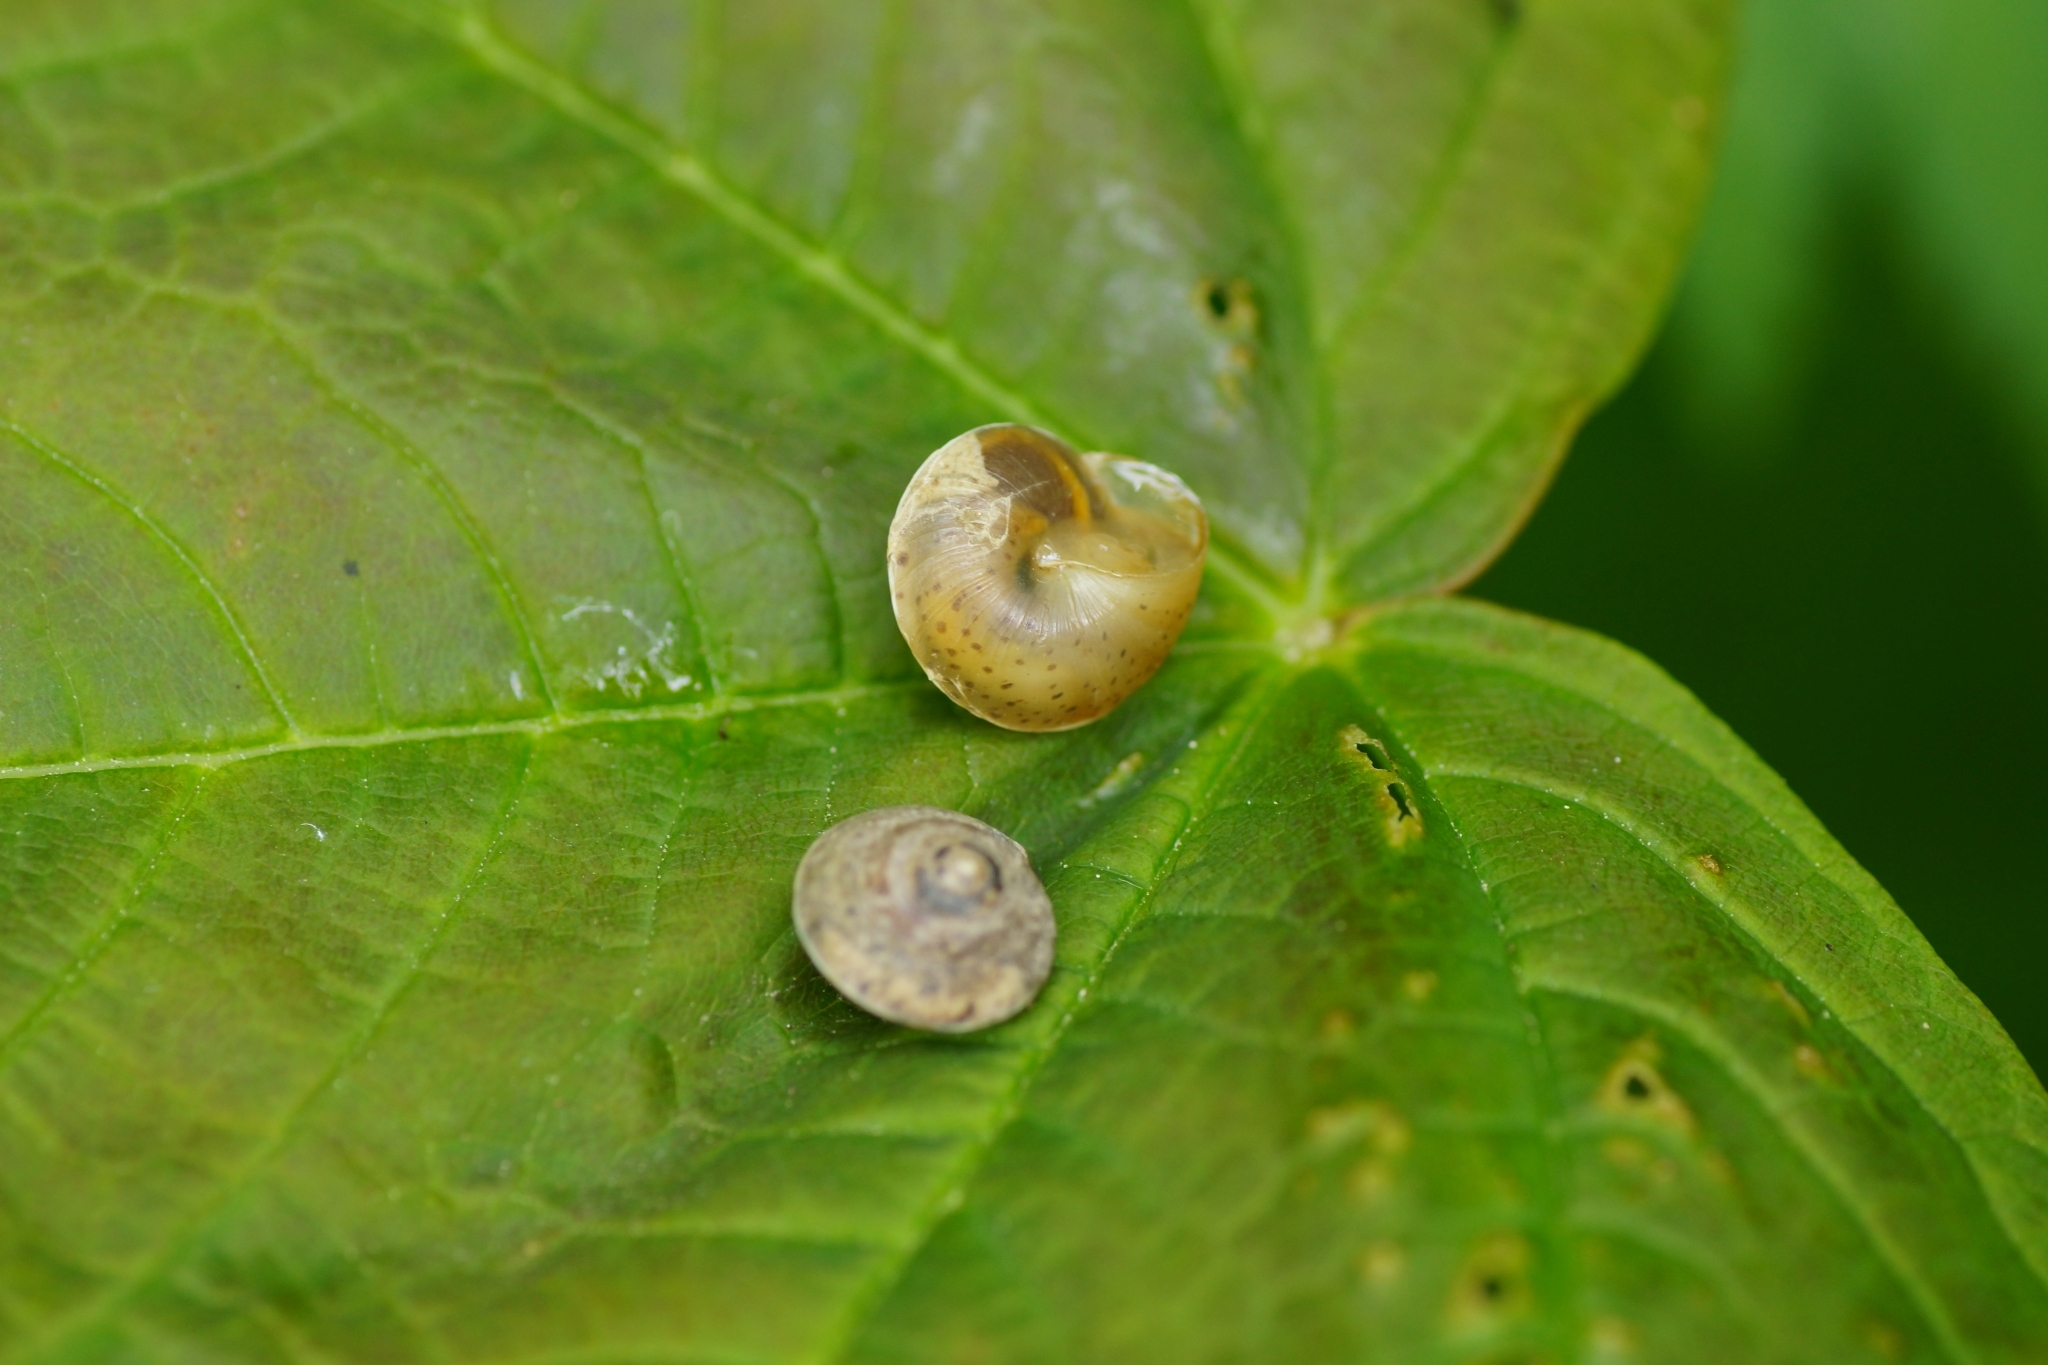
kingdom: Animalia
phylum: Mollusca
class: Gastropoda
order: Stylommatophora
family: Hygromiidae
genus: Hygromia
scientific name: Hygromia cinctella
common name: Girdled snail
